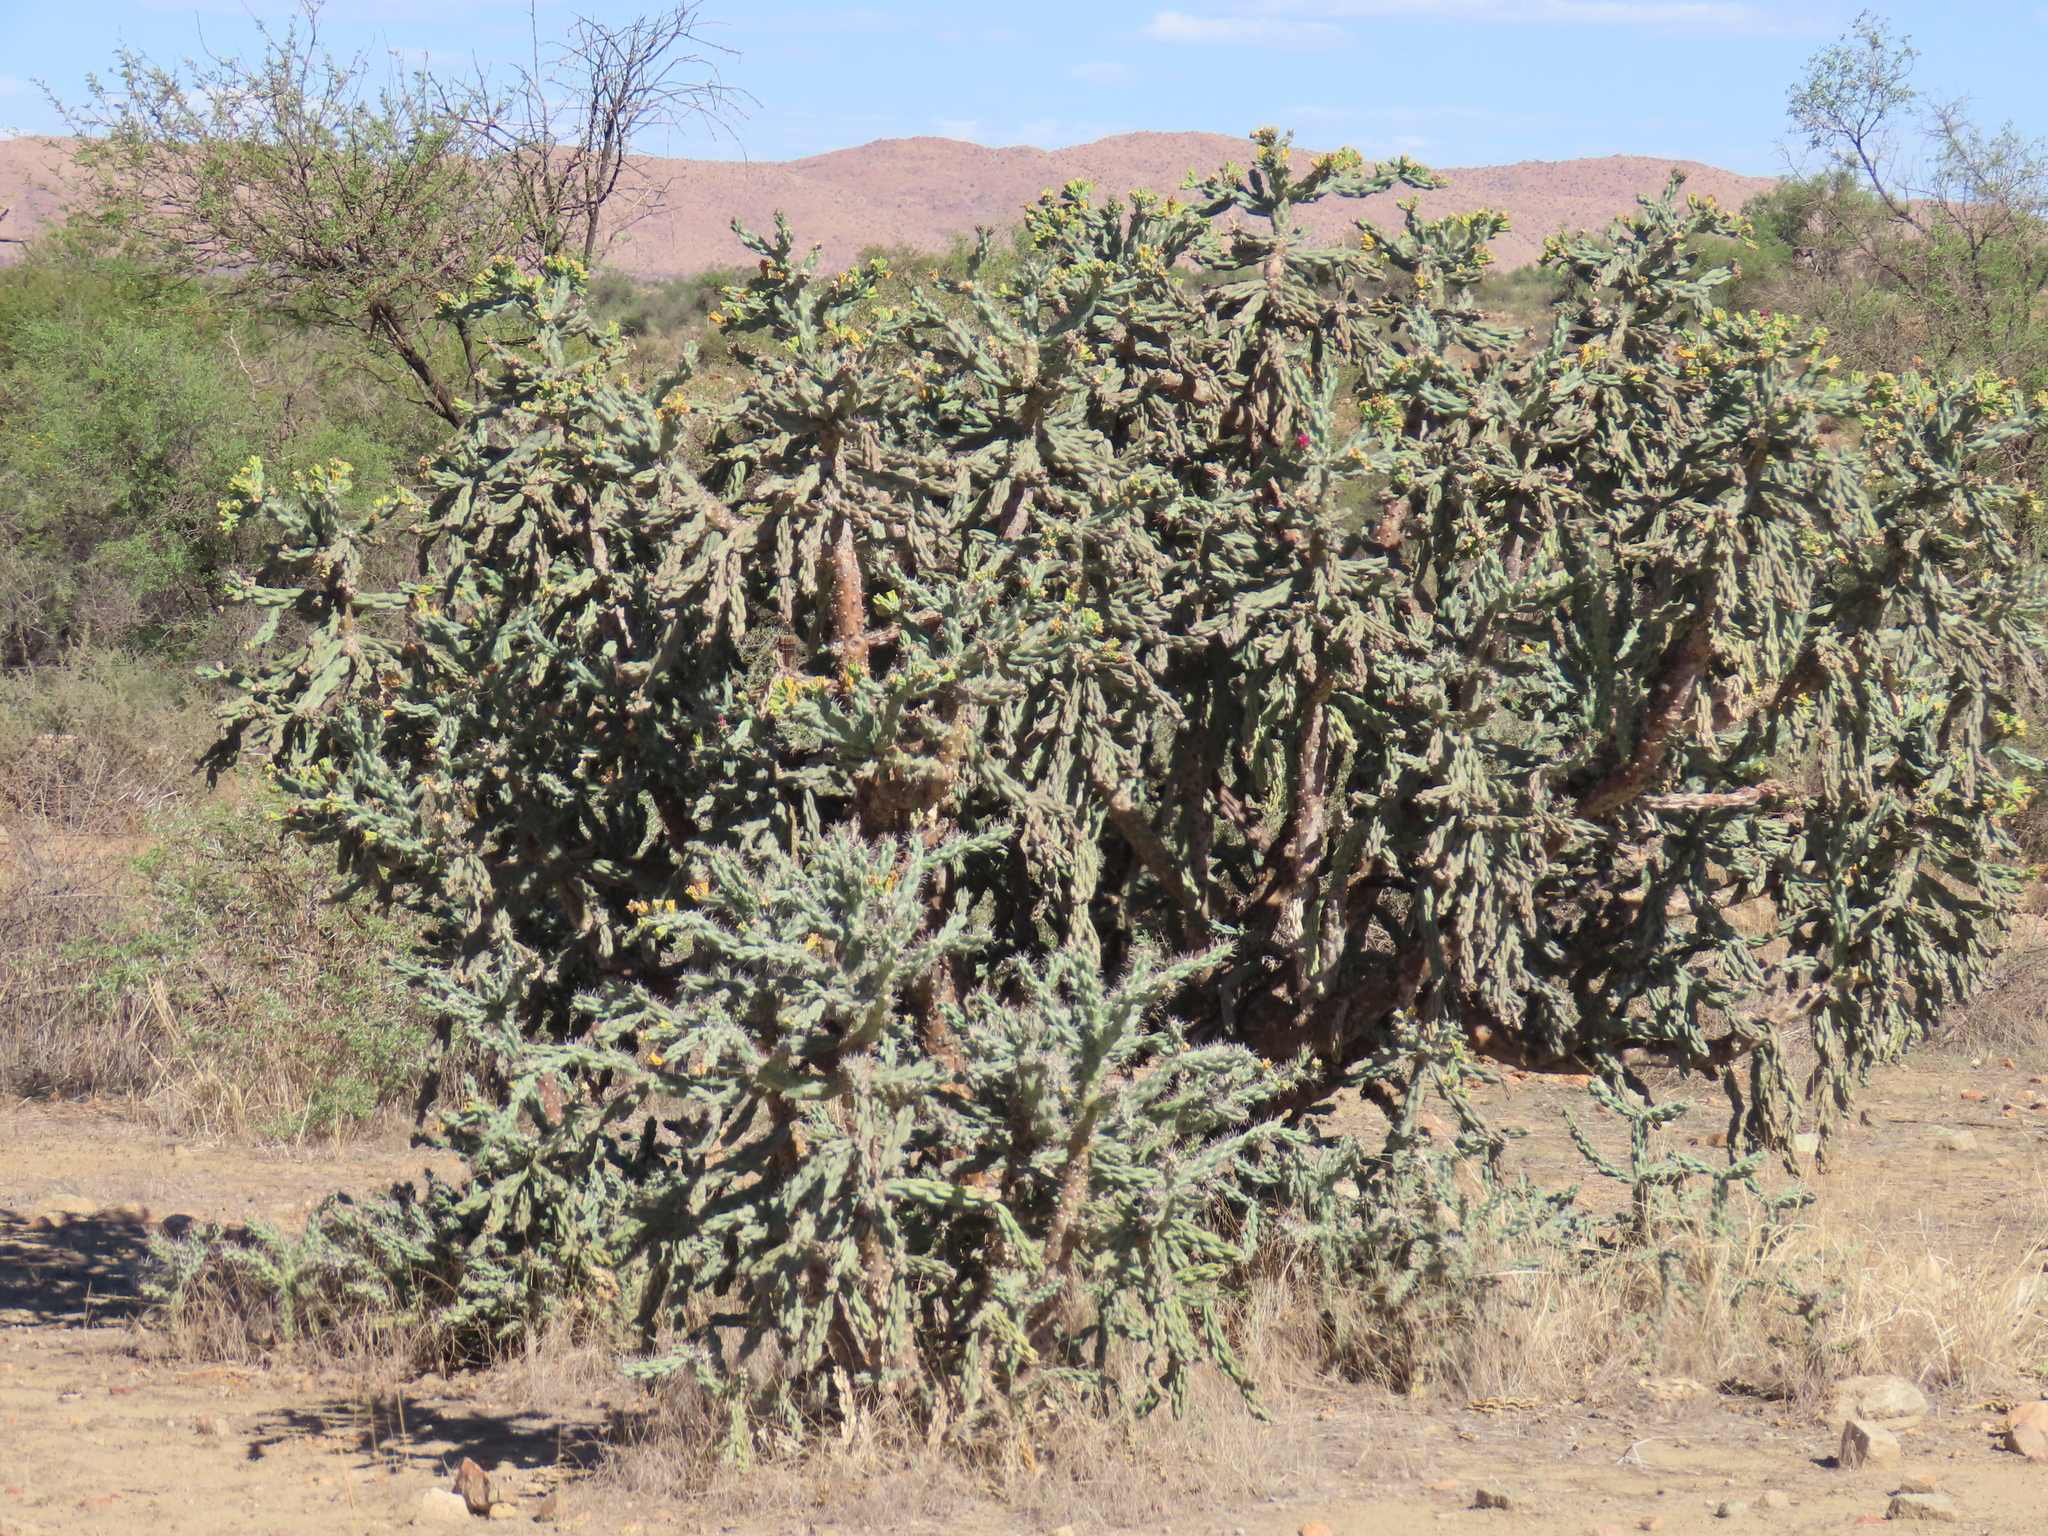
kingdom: Plantae
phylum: Tracheophyta
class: Magnoliopsida
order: Caryophyllales
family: Cactaceae
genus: Cylindropuntia
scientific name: Cylindropuntia imbricata
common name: Candelabrum cactus
